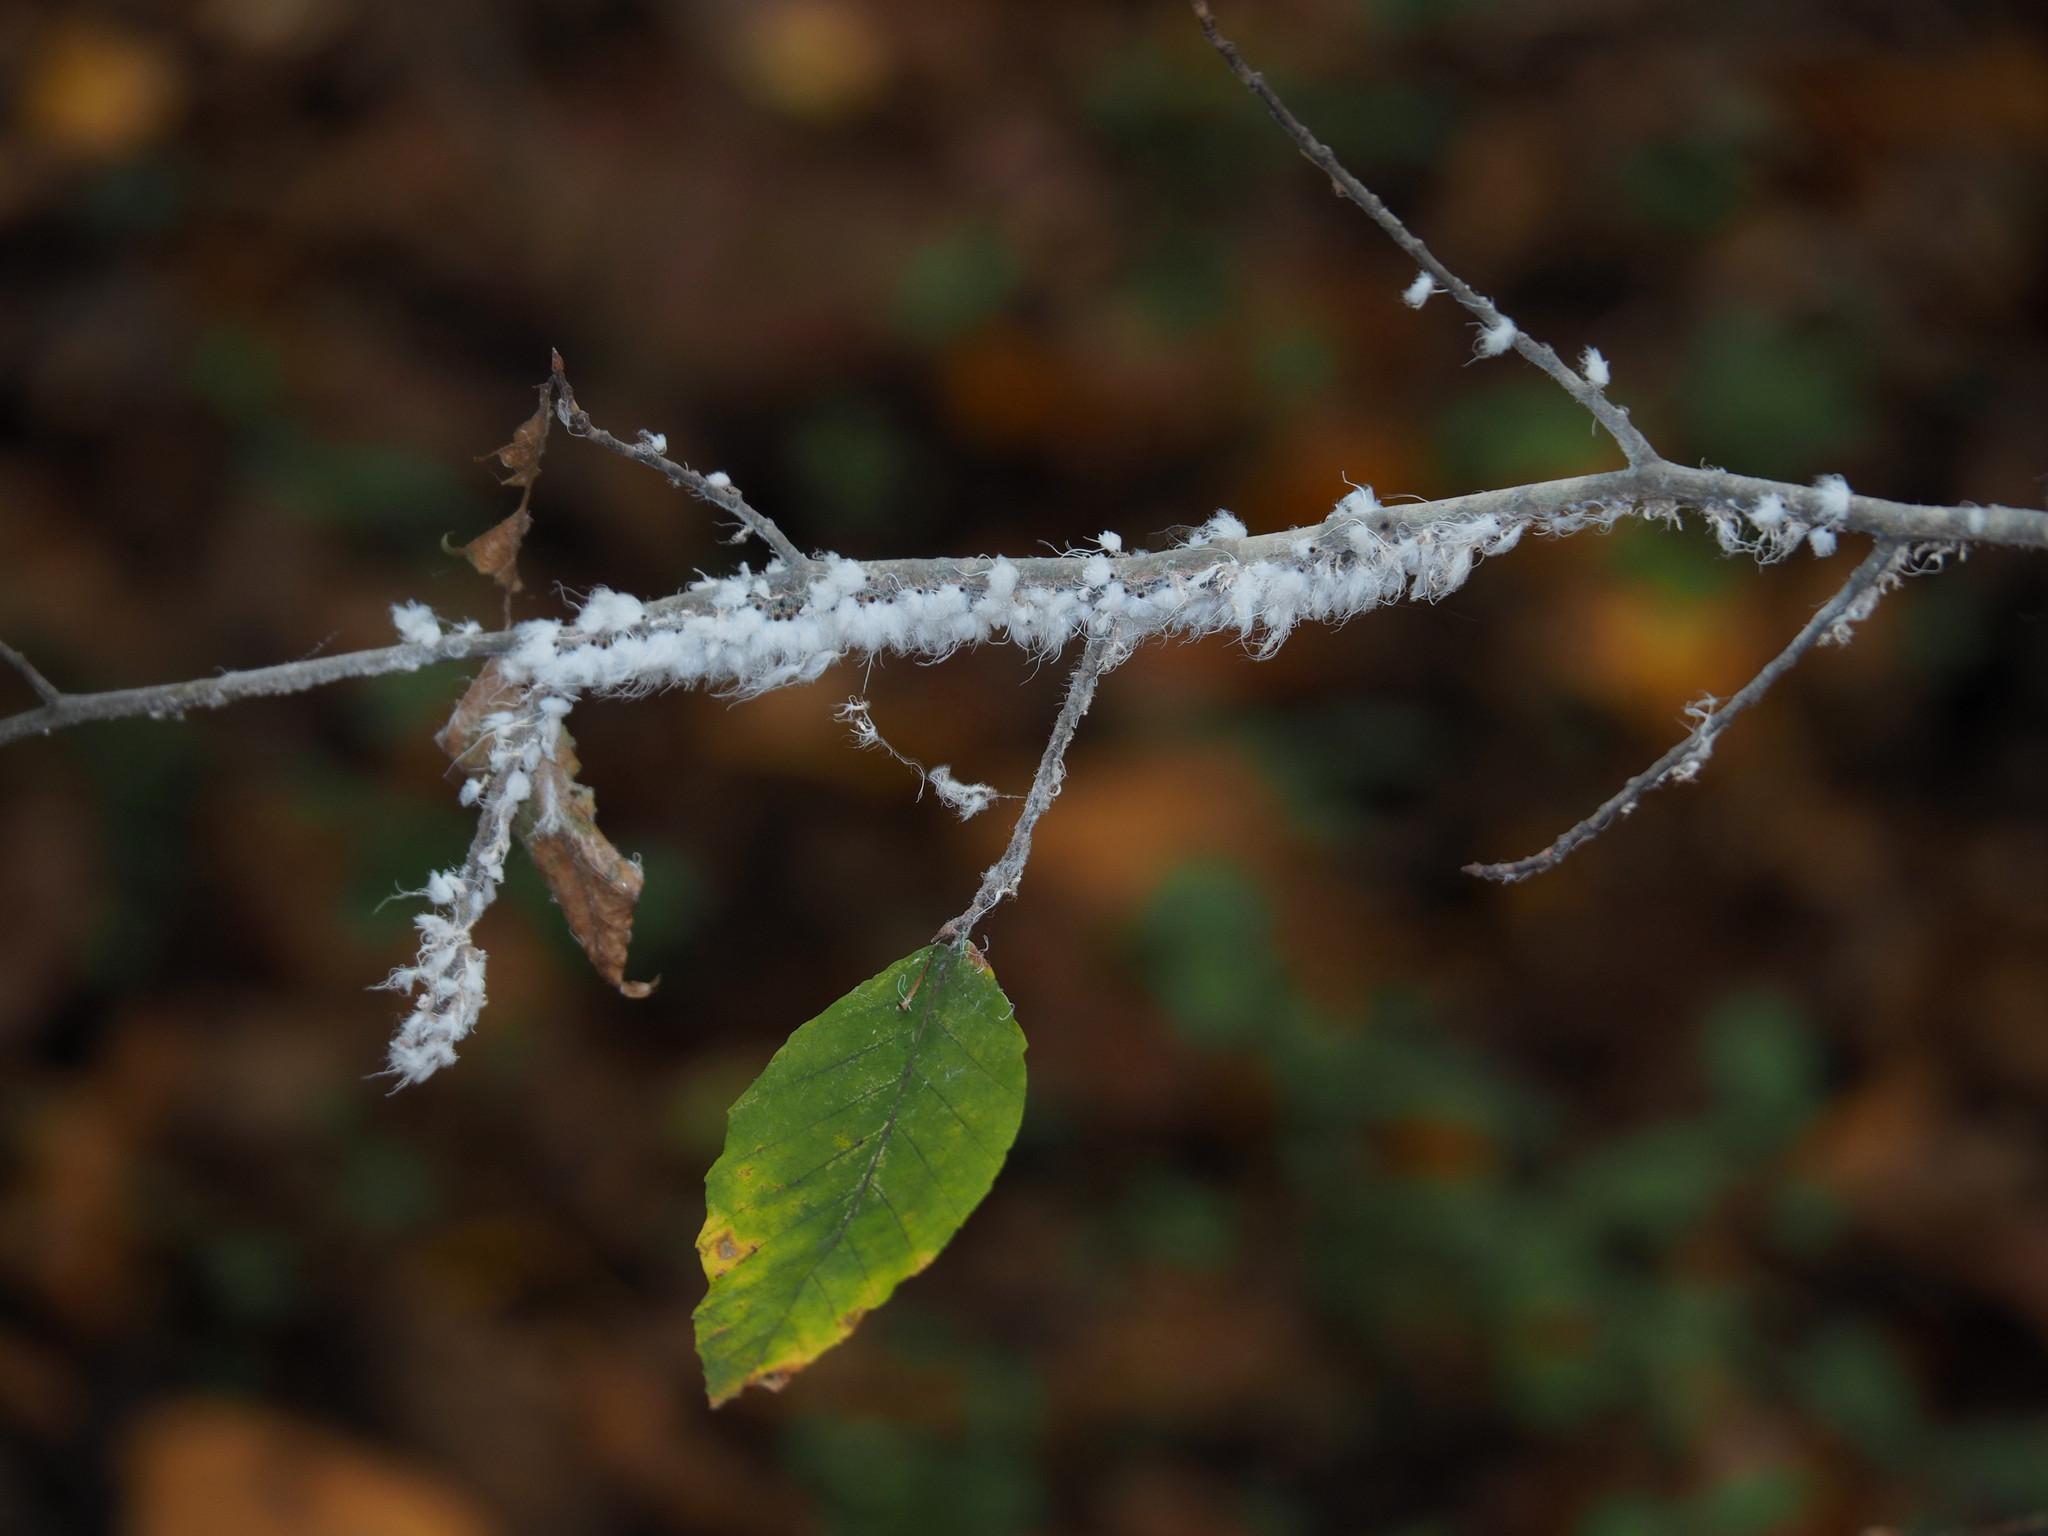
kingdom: Animalia
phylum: Arthropoda
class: Insecta
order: Hemiptera
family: Aphididae
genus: Grylloprociphilus
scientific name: Grylloprociphilus imbricator
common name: Beech blight aphid
